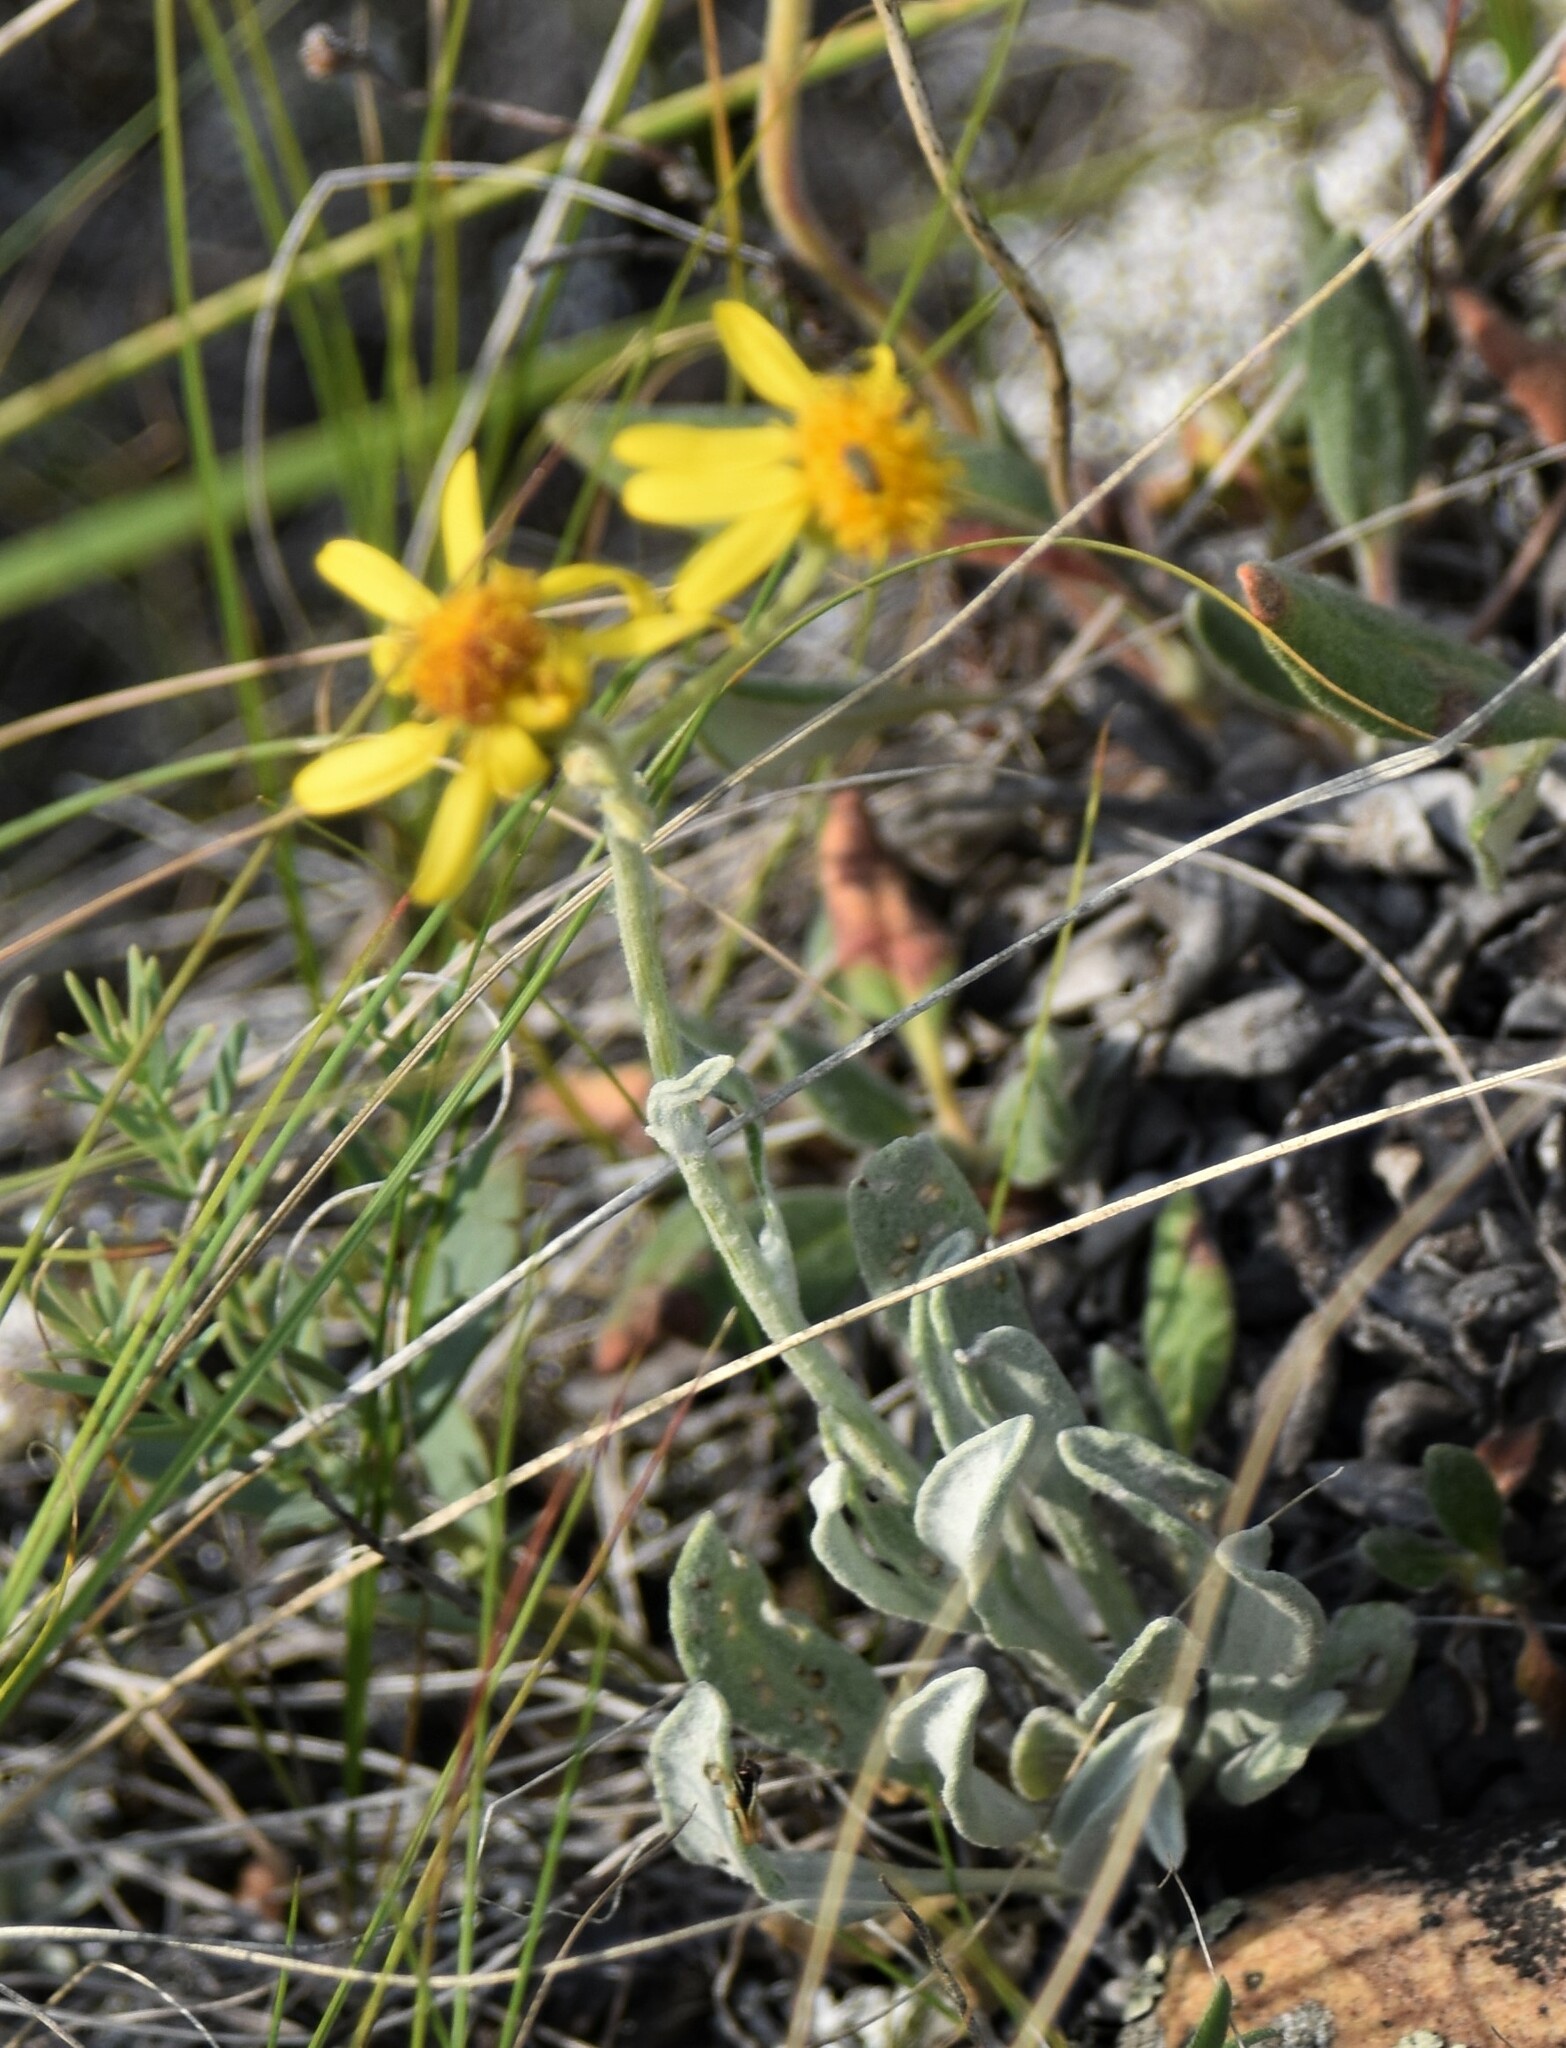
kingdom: Plantae
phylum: Tracheophyta
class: Magnoliopsida
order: Asterales
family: Asteraceae
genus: Packera
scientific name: Packera cana
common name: Woolly groundsel
